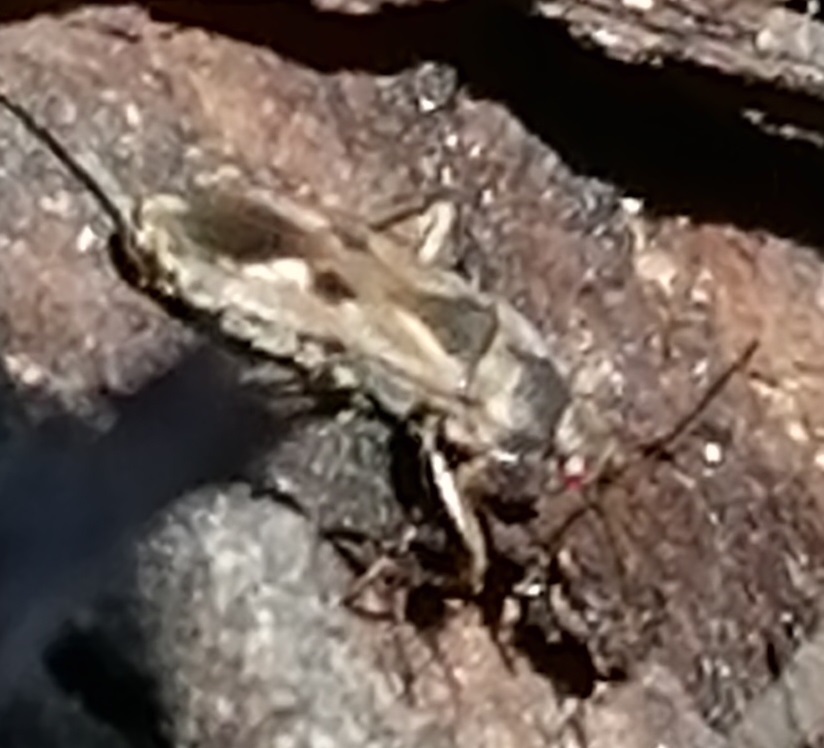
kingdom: Animalia
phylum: Arthropoda
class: Insecta
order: Hemiptera
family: Rhyparochromidae
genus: Rhyparochromus
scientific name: Rhyparochromus vulgaris
